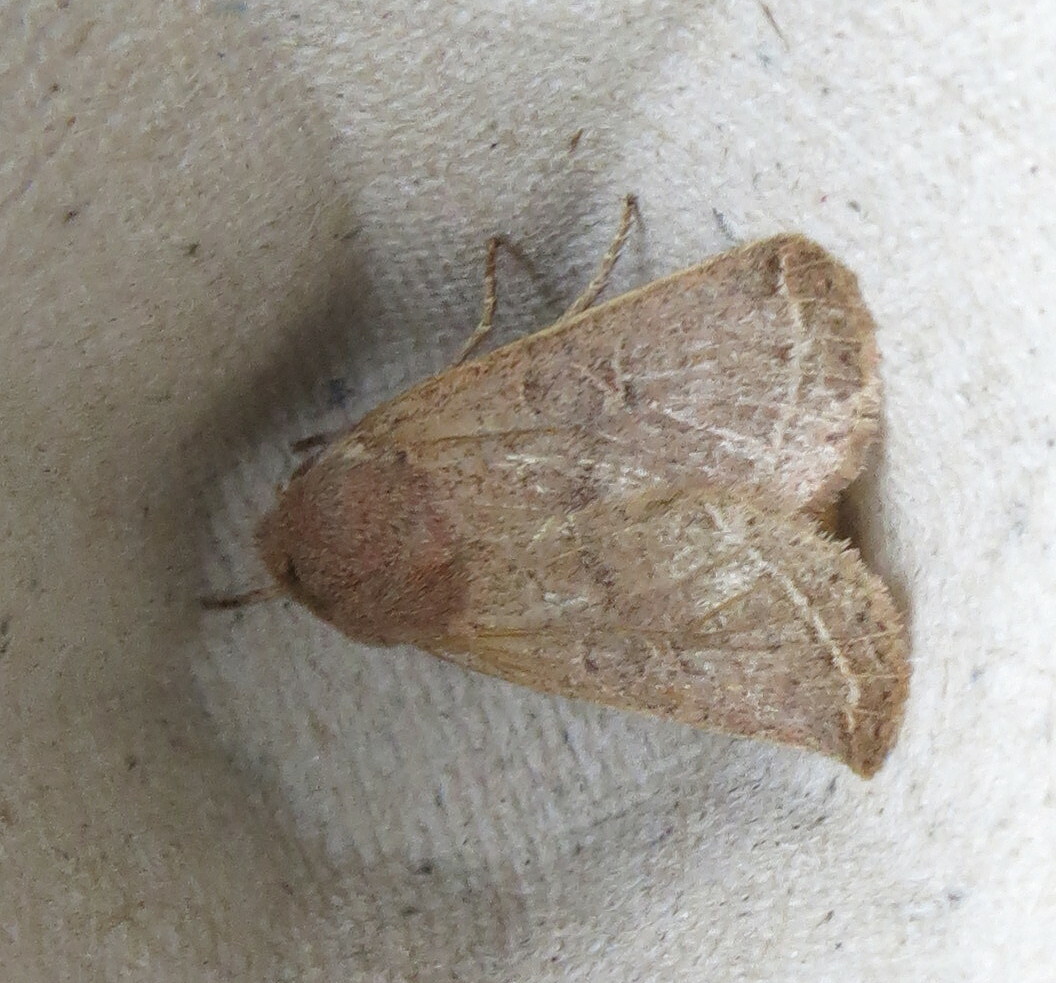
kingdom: Animalia
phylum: Arthropoda
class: Insecta
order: Lepidoptera
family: Noctuidae
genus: Orthosia
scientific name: Orthosia cerasi
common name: Common quaker
